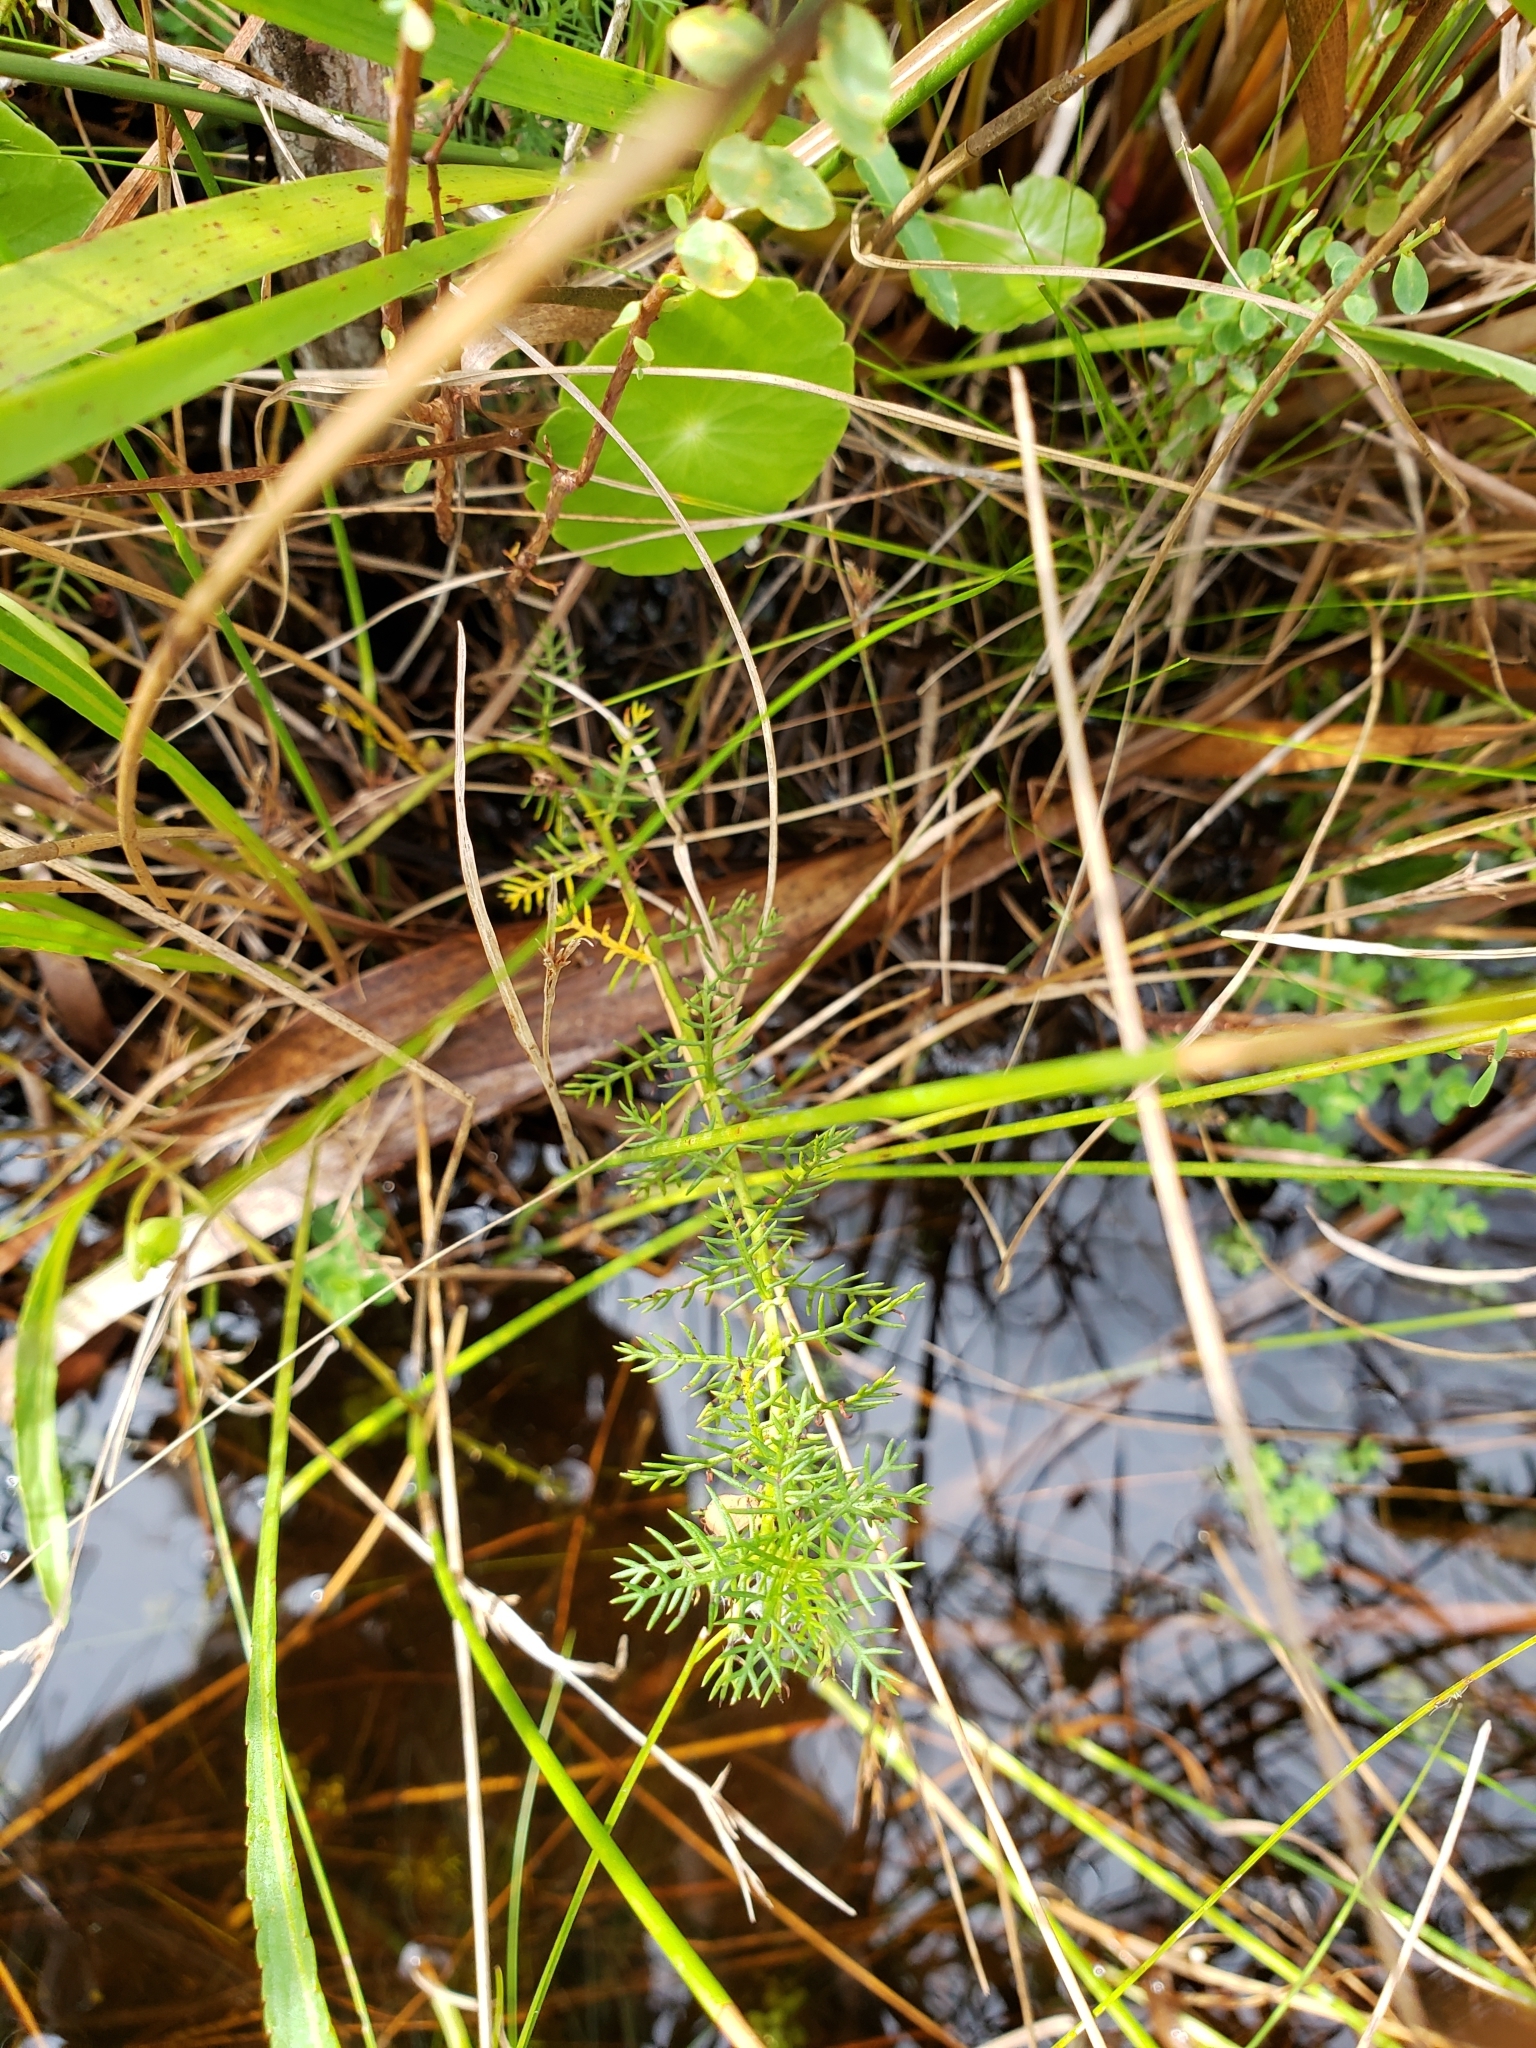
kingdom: Plantae
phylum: Tracheophyta
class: Magnoliopsida
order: Saxifragales
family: Haloragaceae
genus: Proserpinaca
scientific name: Proserpinaca pectinata
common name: Comb-leaved mermaidweed
